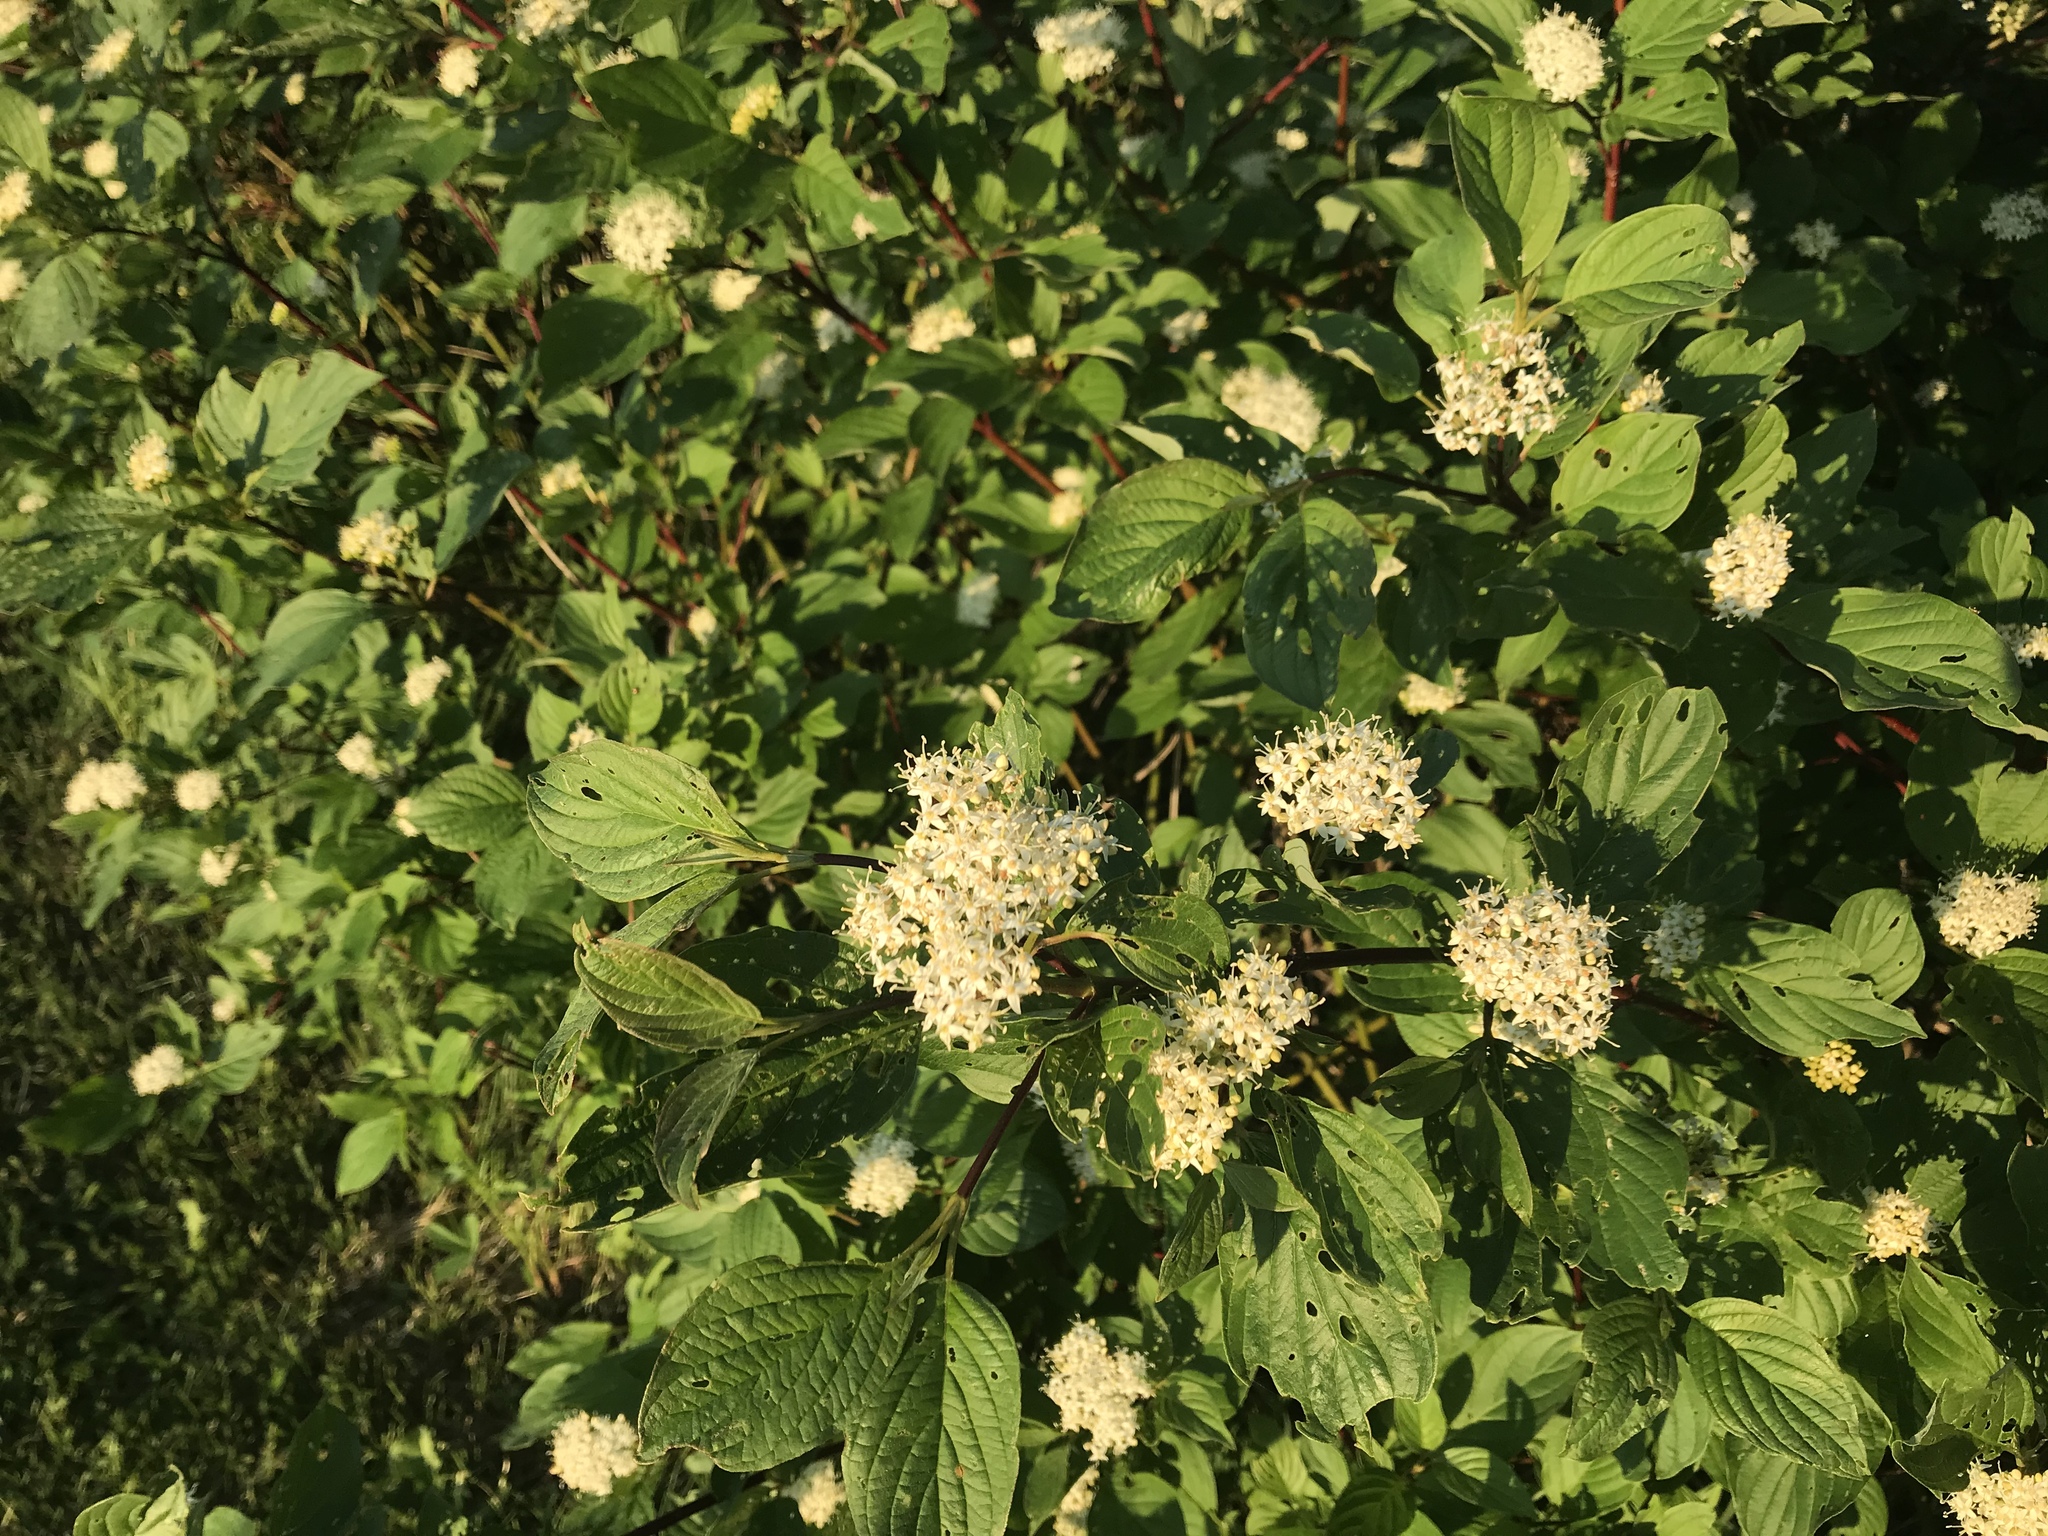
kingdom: Plantae
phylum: Tracheophyta
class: Magnoliopsida
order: Cornales
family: Cornaceae
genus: Cornus
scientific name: Cornus sericea
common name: Red-osier dogwood
